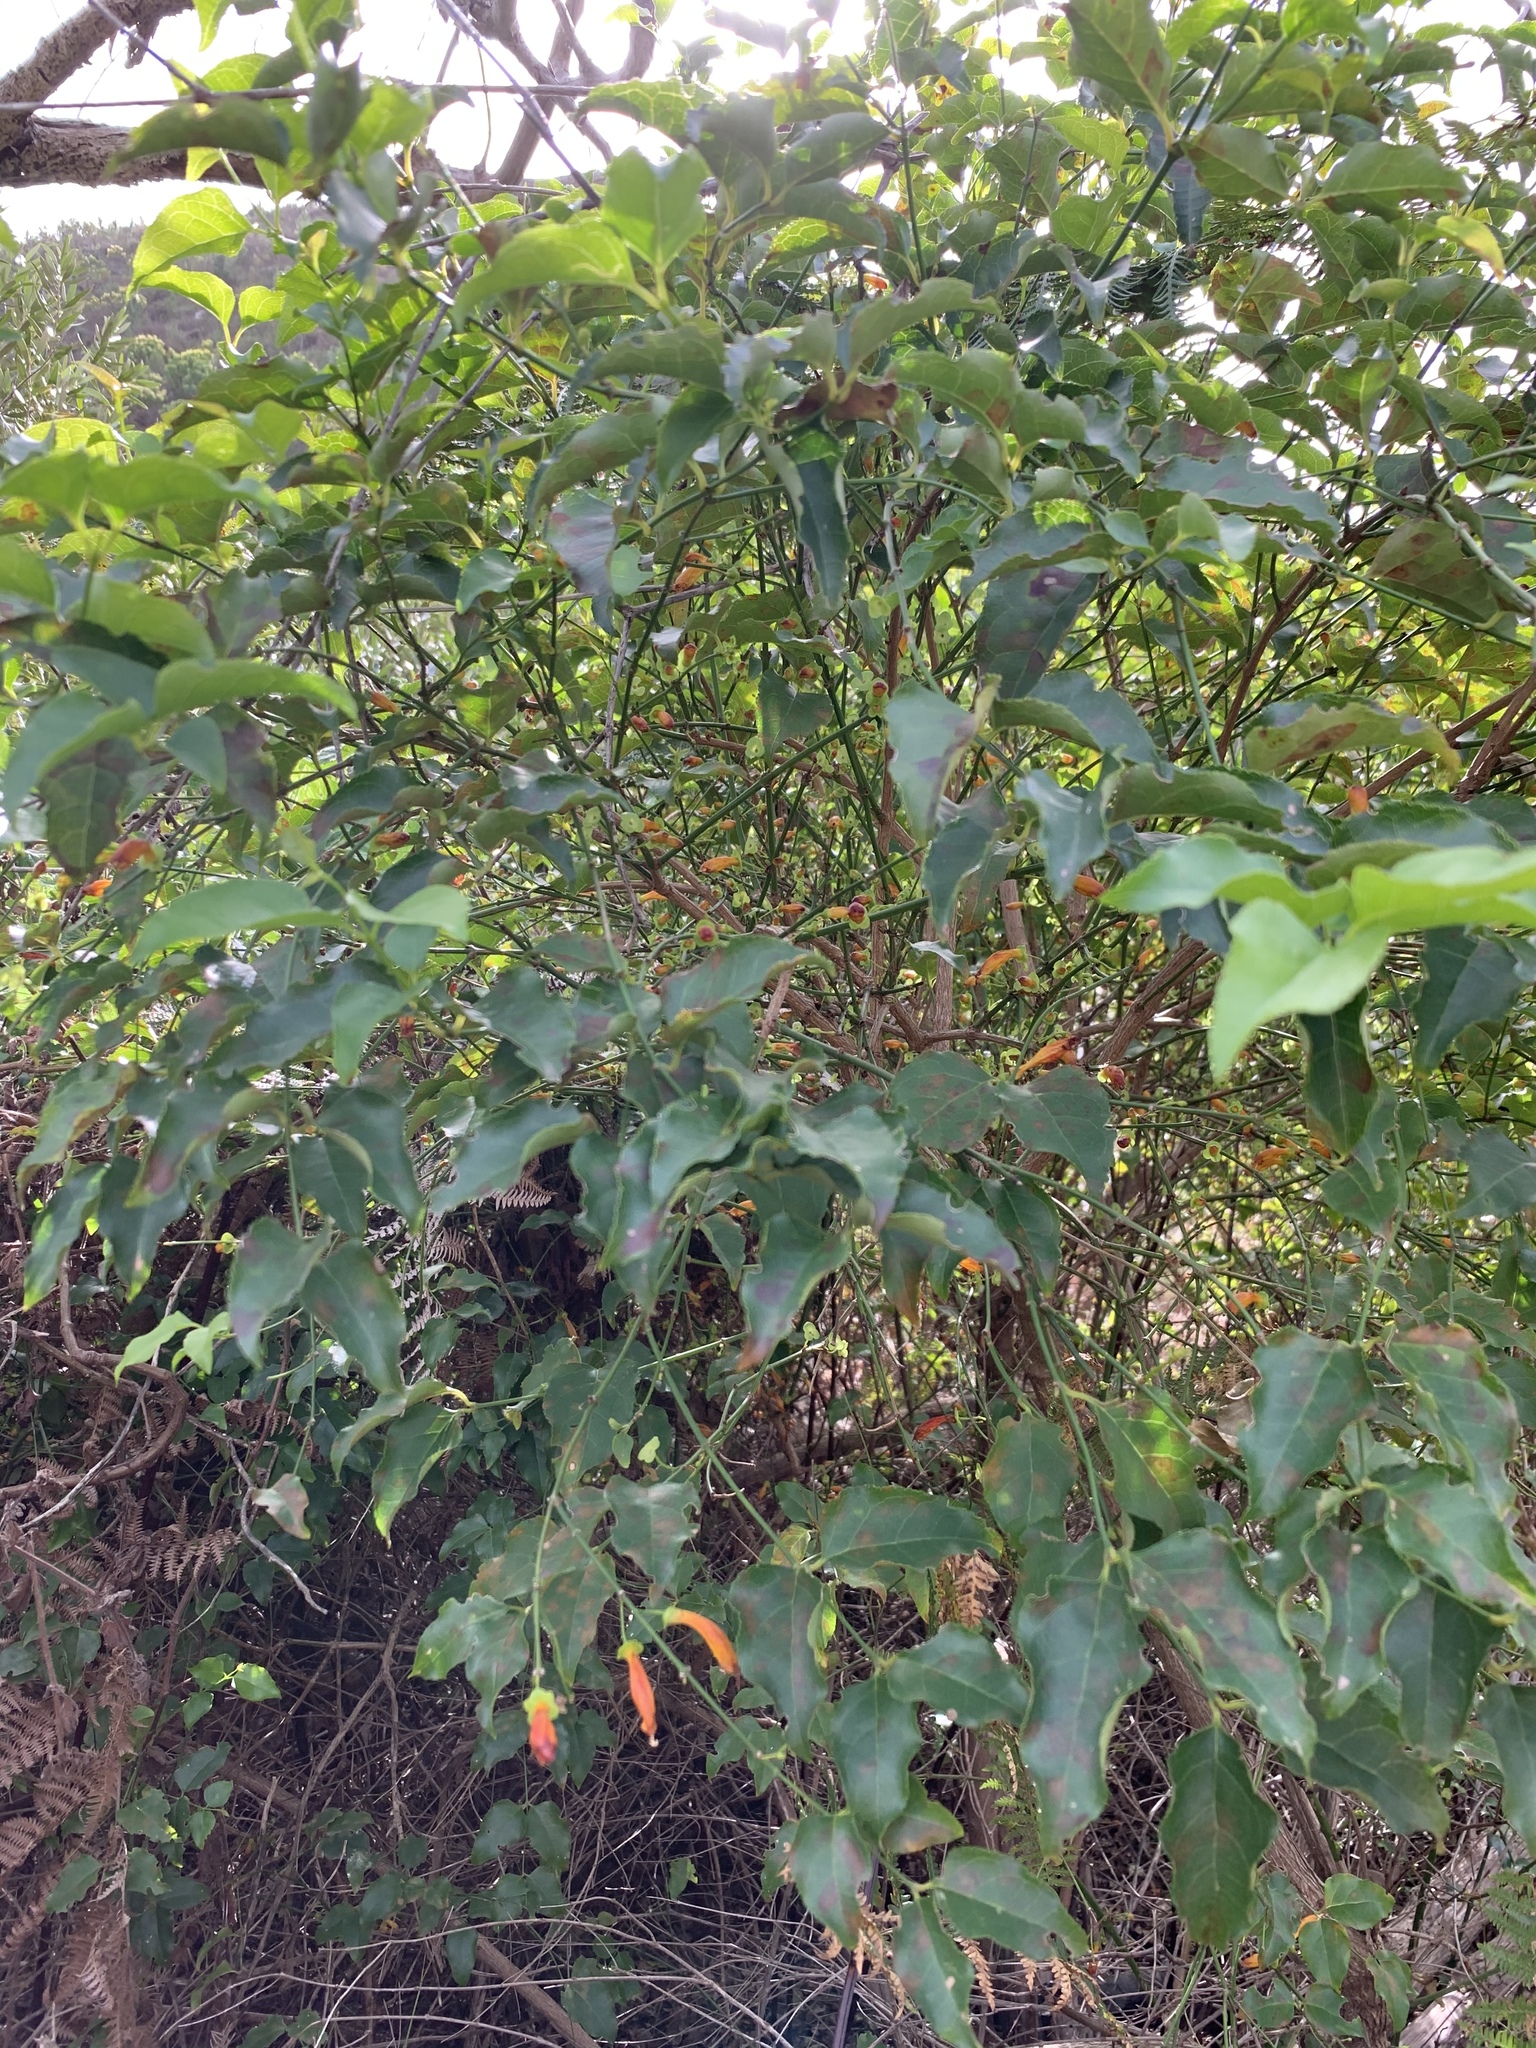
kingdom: Plantae
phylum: Tracheophyta
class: Magnoliopsida
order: Lamiales
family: Stilbaceae
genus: Halleria
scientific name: Halleria lucida
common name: Tree fuschia
